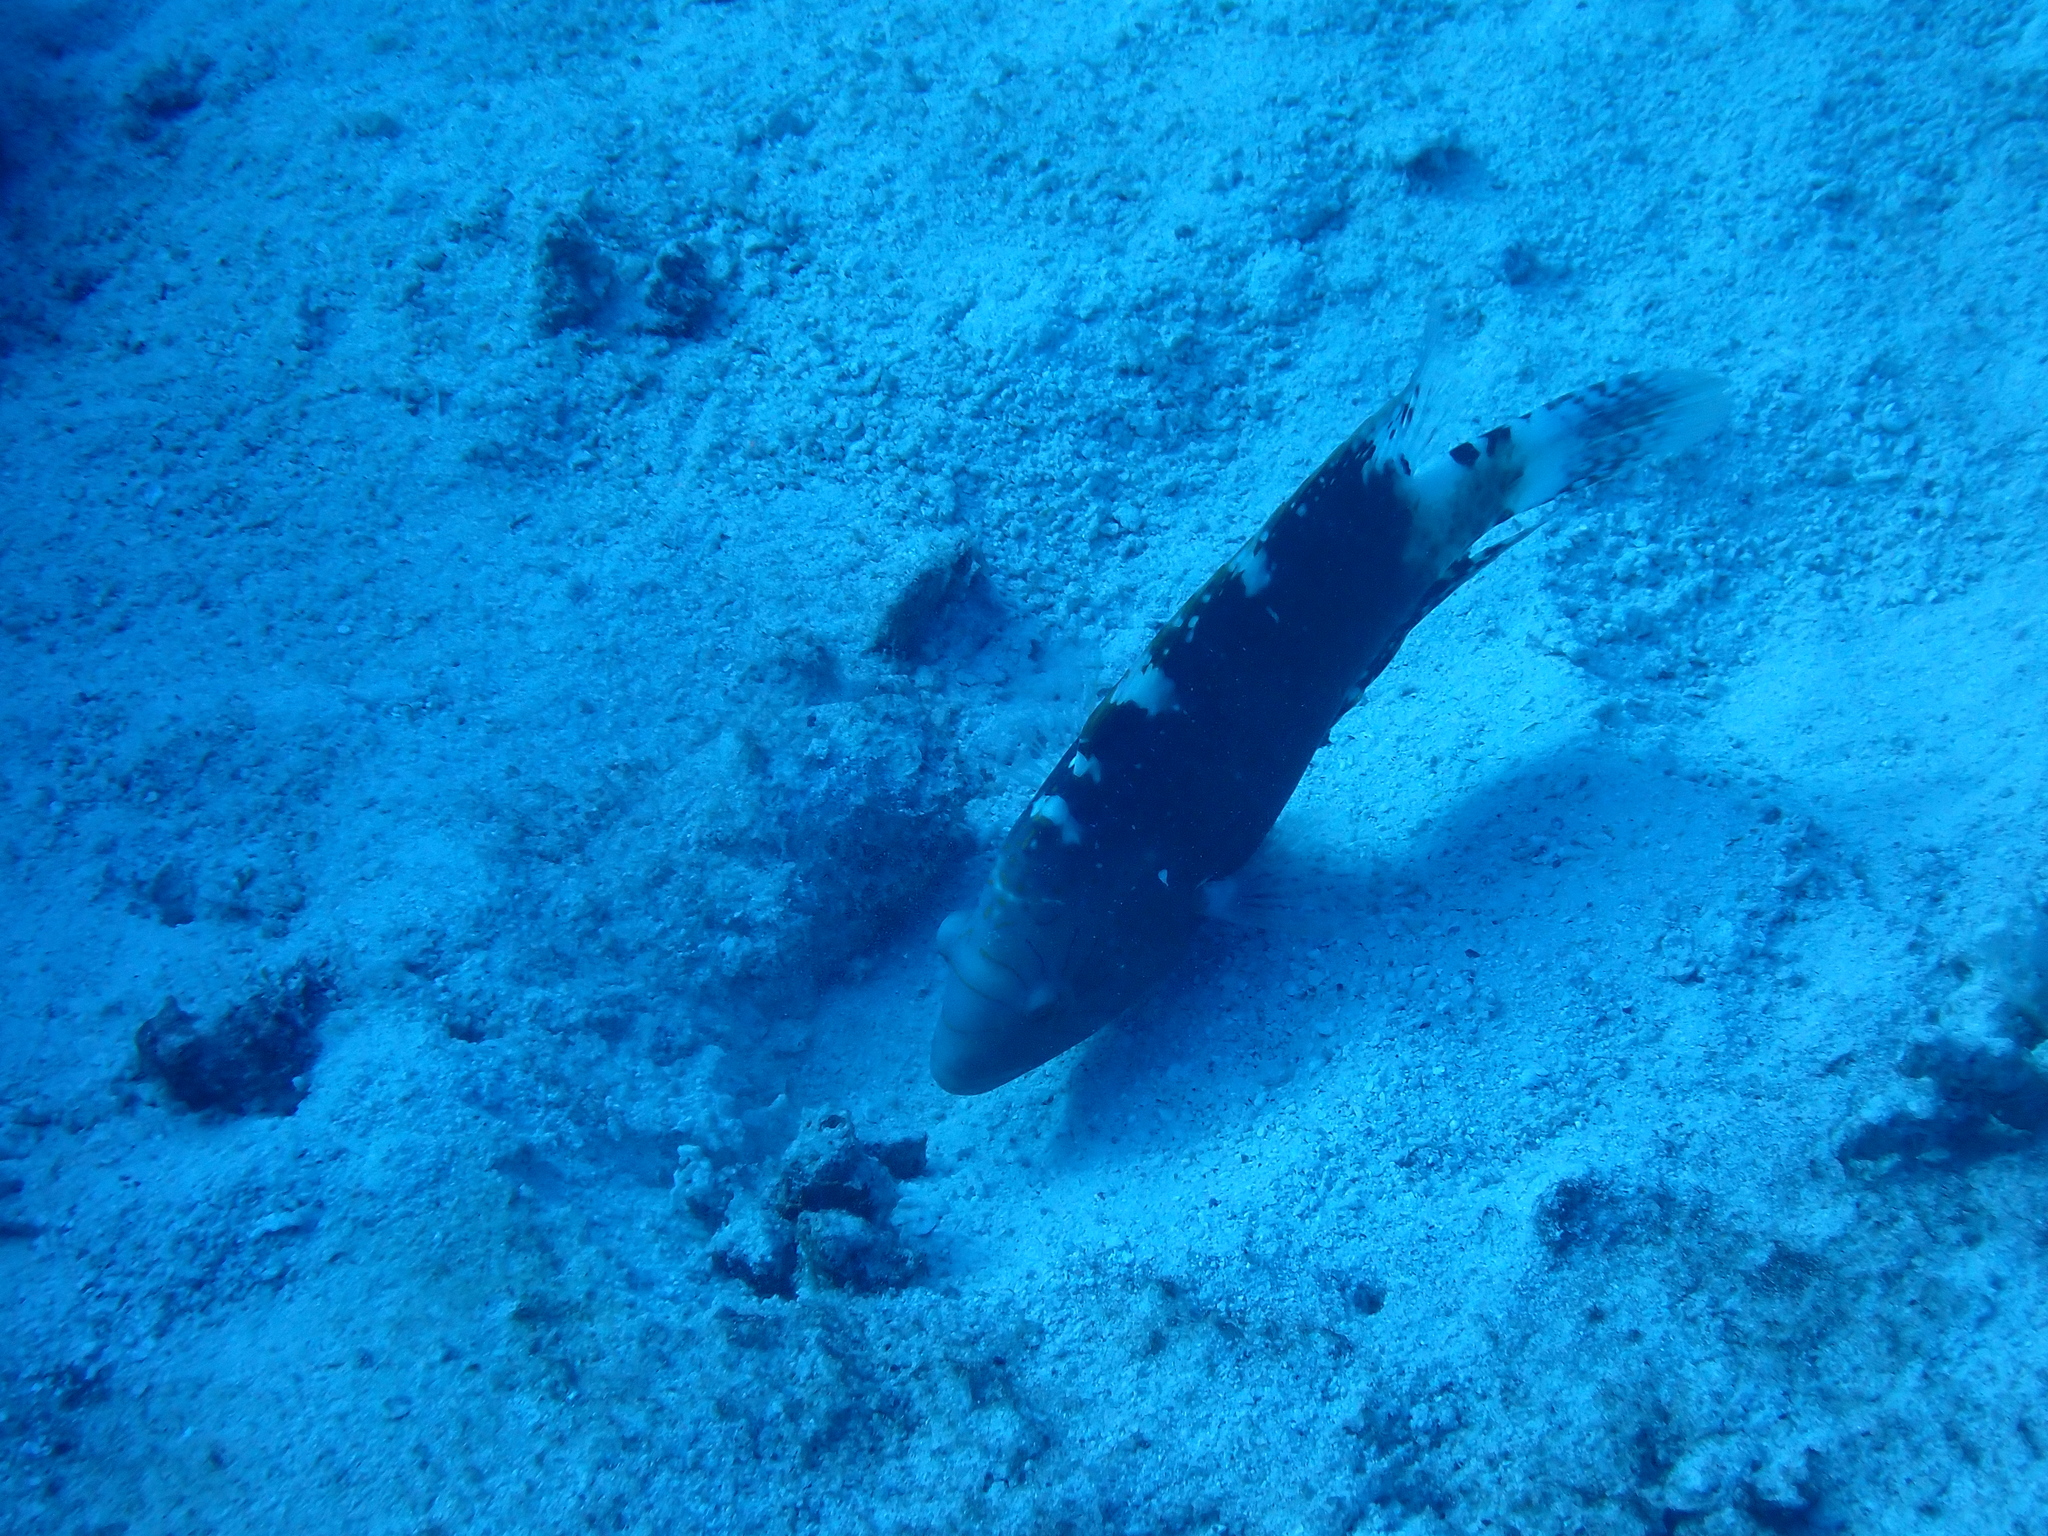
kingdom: Animalia
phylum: Chordata
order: Perciformes
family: Labridae
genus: Cheilinus
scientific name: Cheilinus abudjubbe
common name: Abudjubbe’s splendor wrasse
